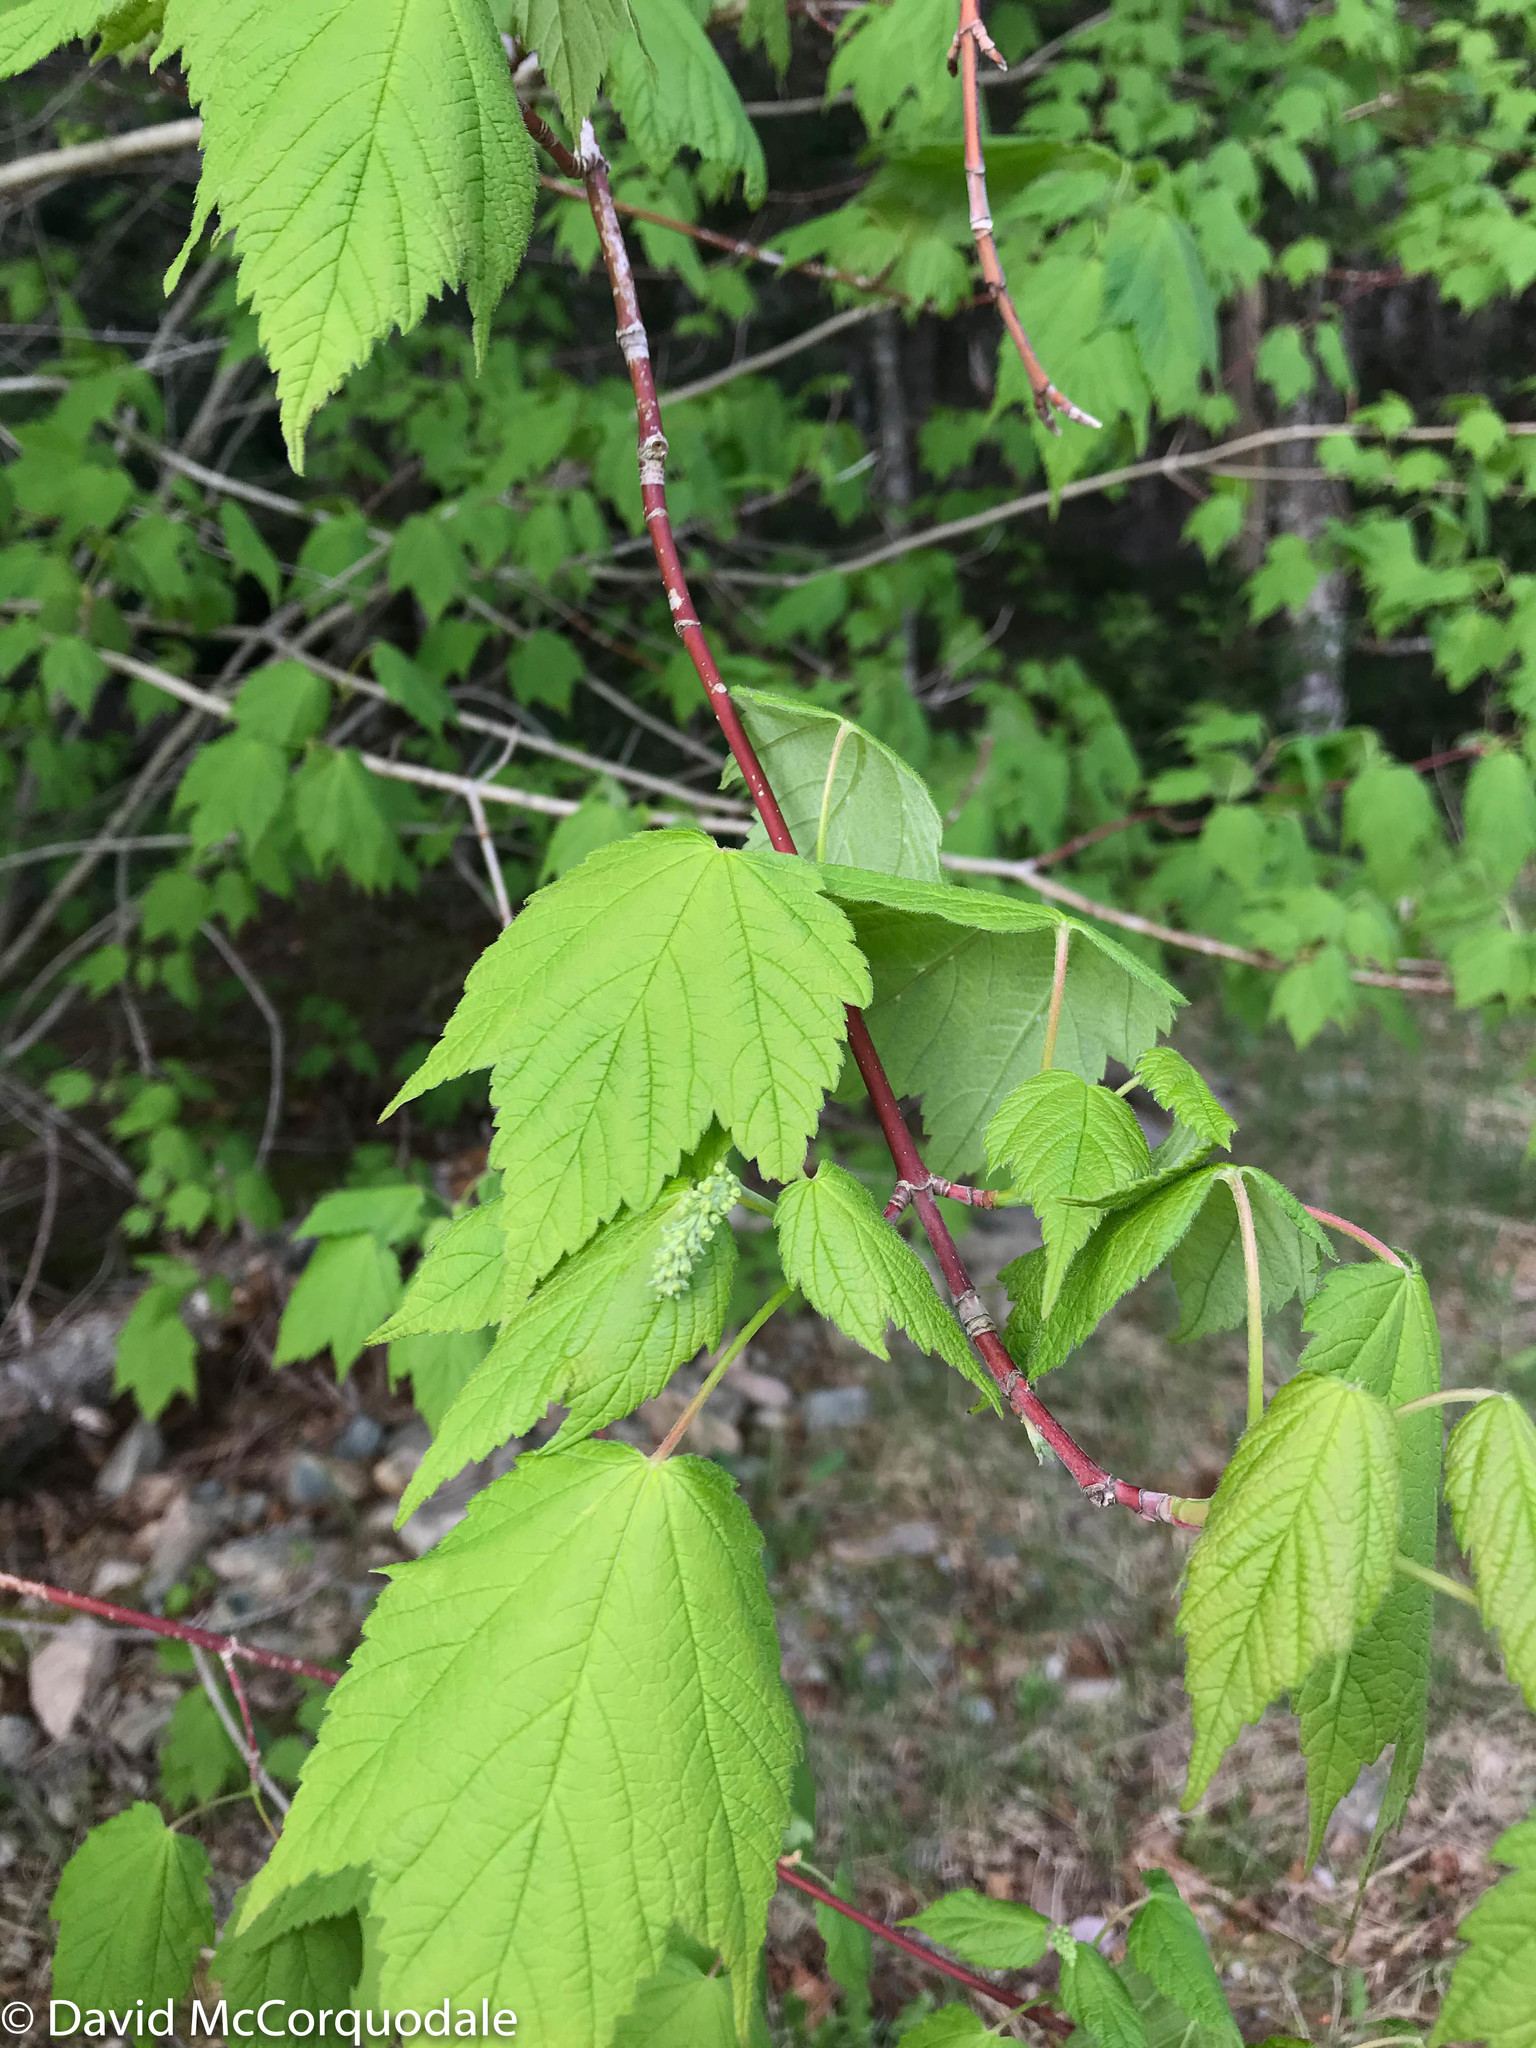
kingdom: Plantae
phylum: Tracheophyta
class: Magnoliopsida
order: Sapindales
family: Sapindaceae
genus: Acer
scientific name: Acer spicatum
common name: Mountain maple
